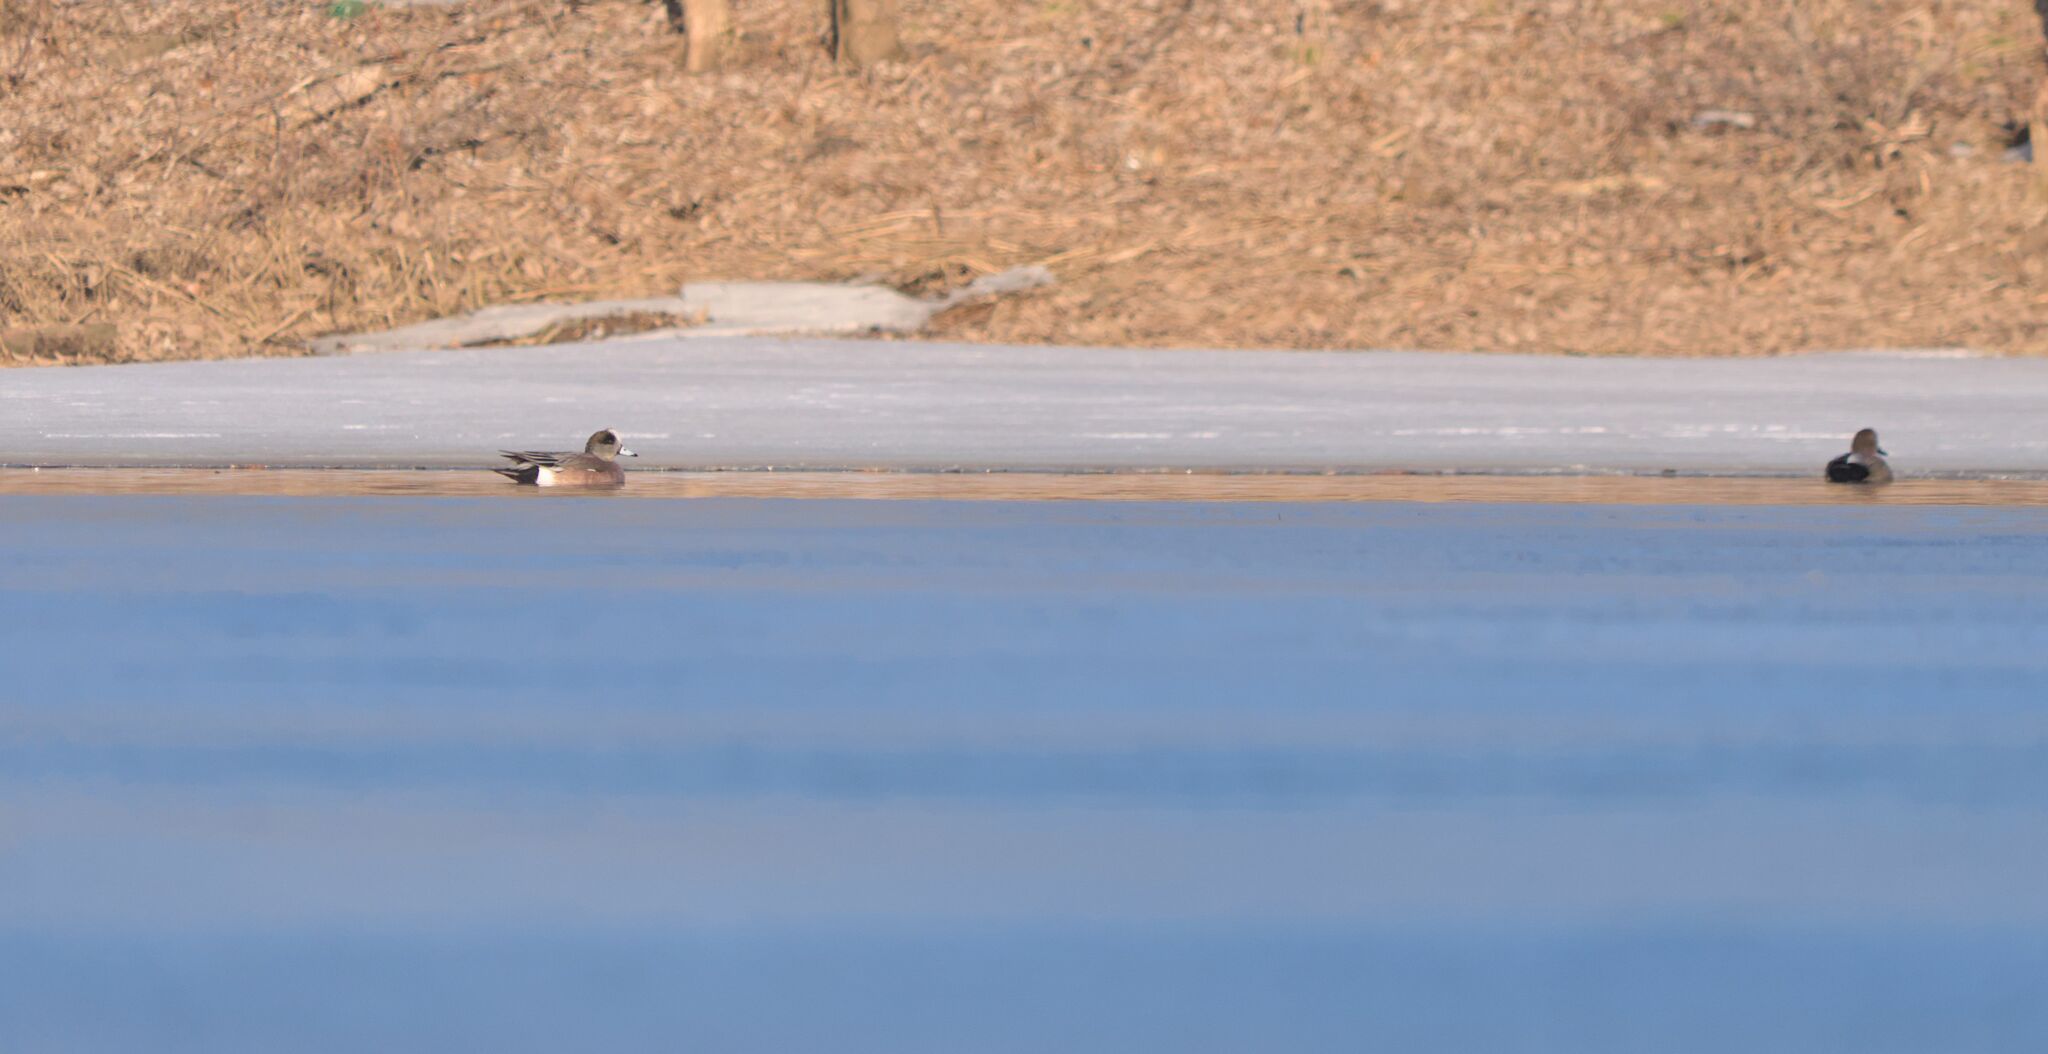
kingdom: Animalia
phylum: Chordata
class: Aves
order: Anseriformes
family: Anatidae
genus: Mareca
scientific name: Mareca americana
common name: American wigeon
